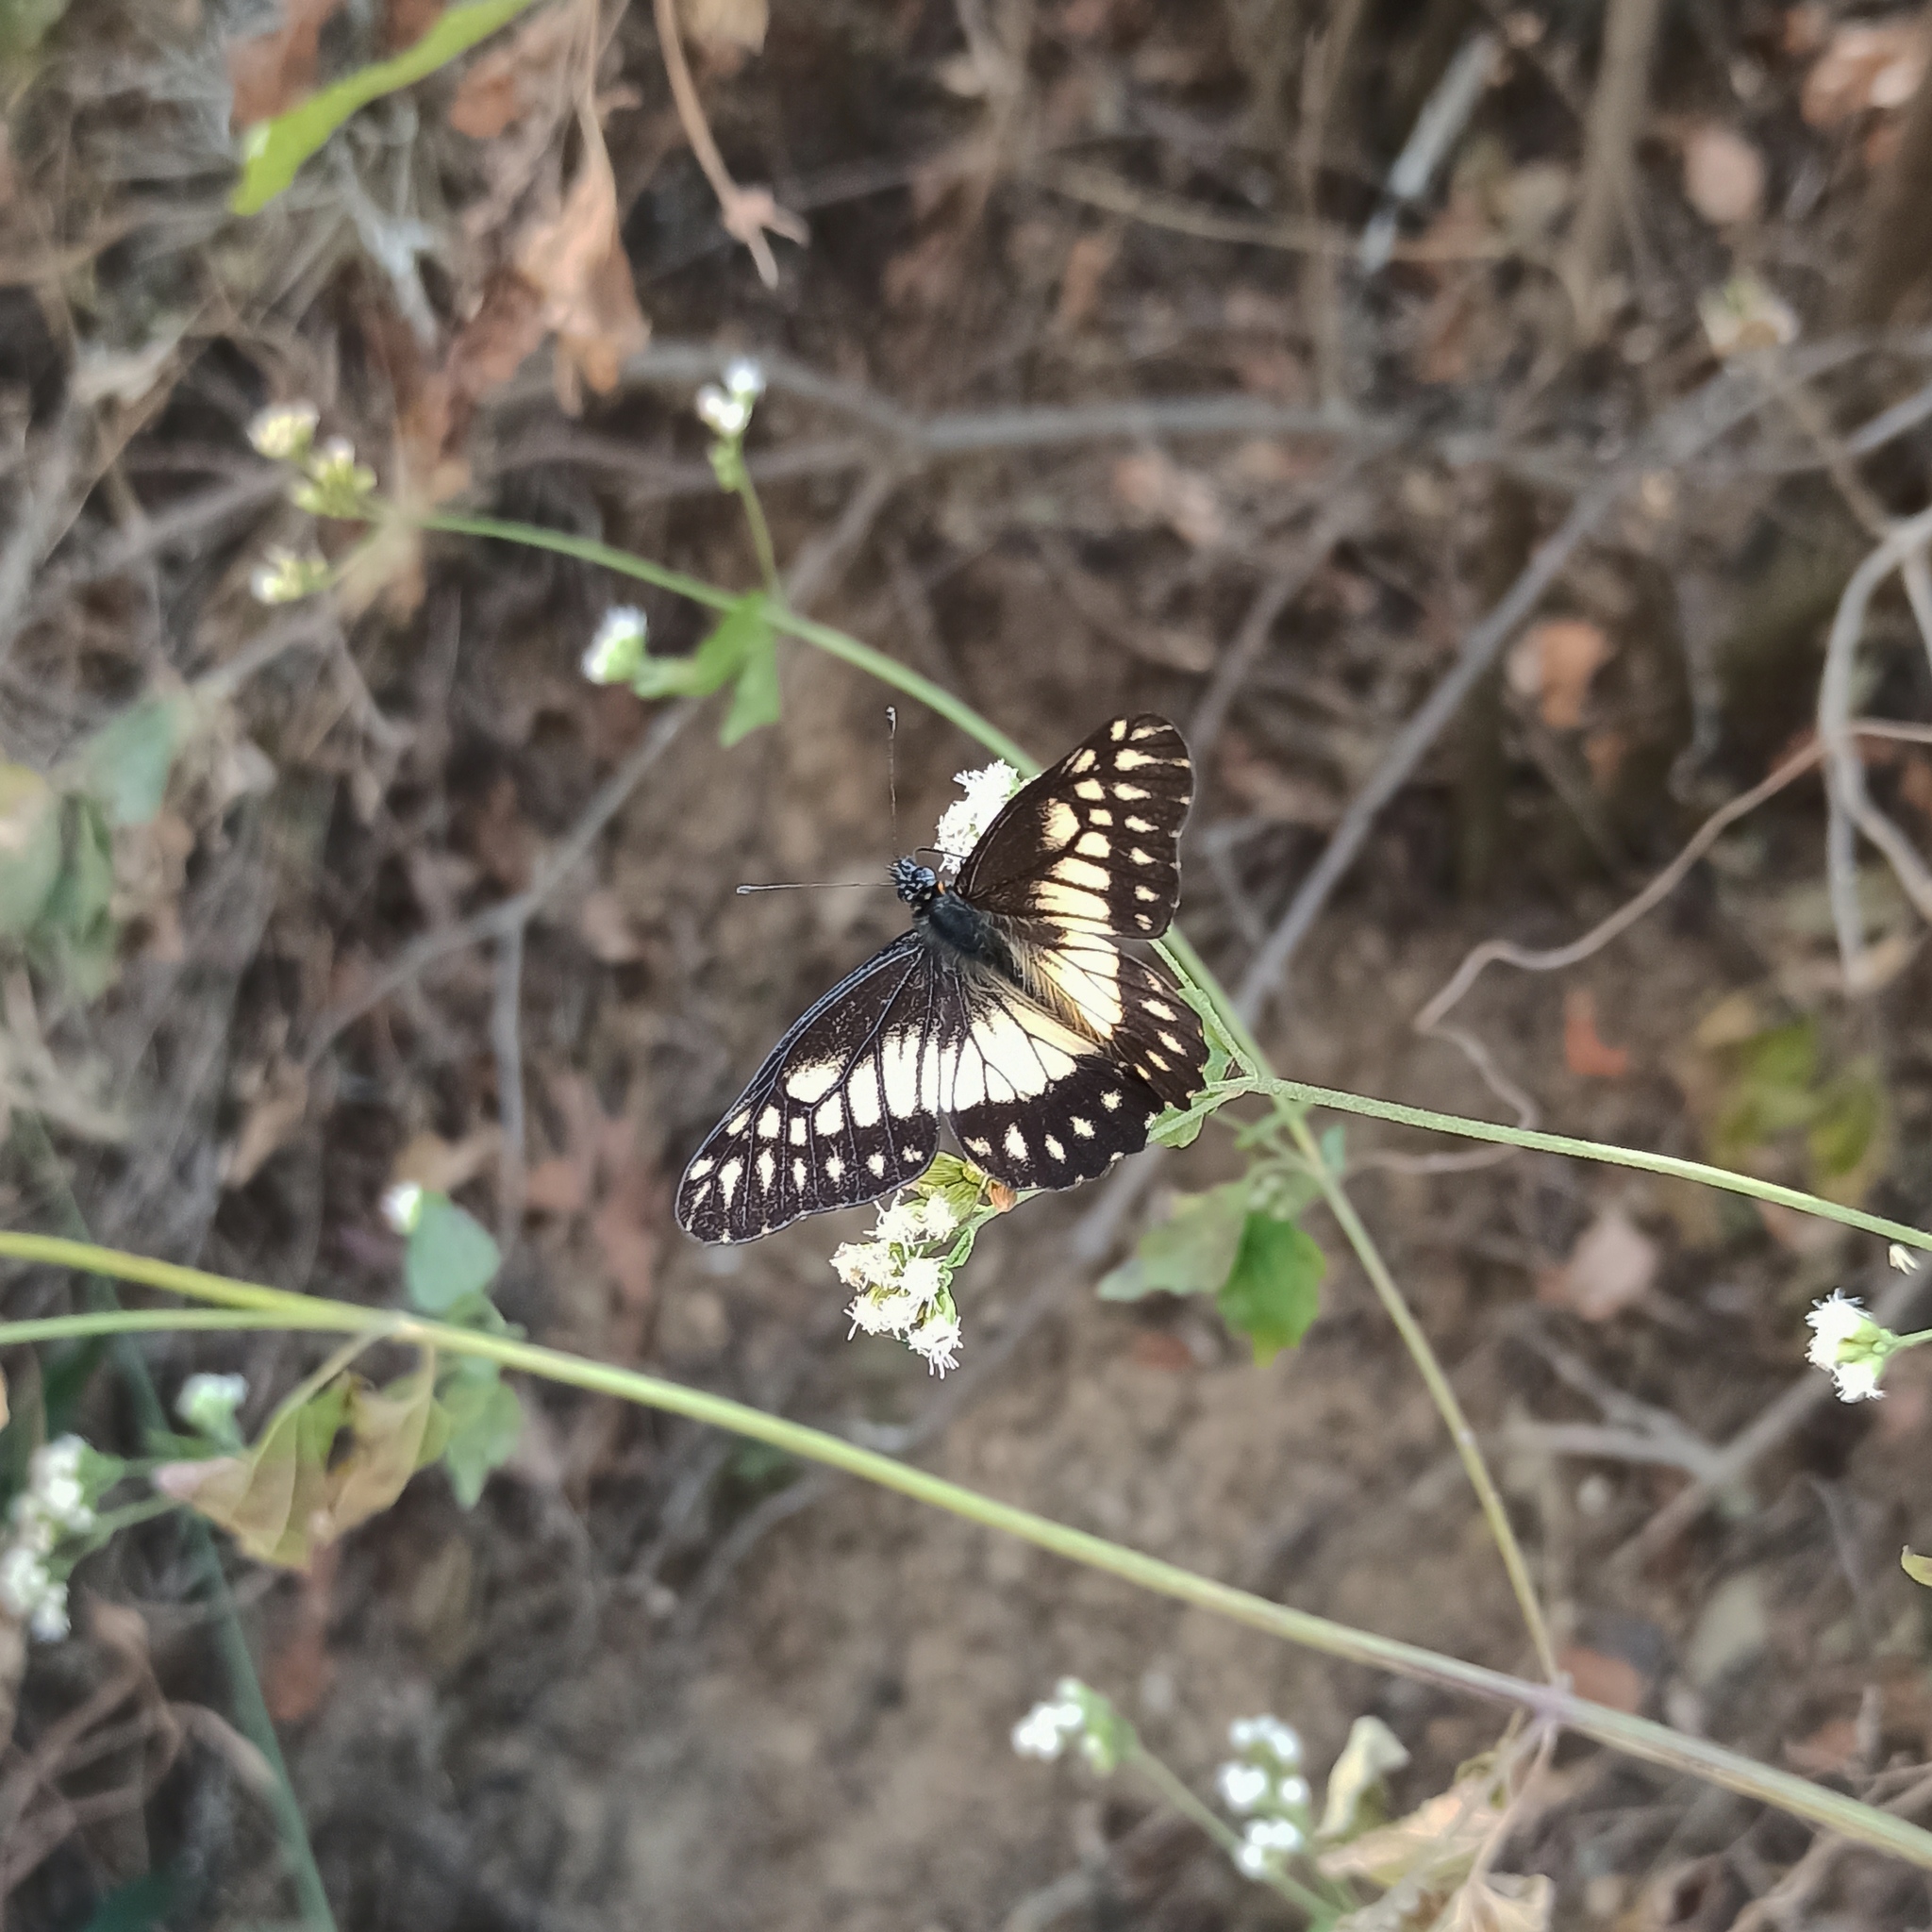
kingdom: Animalia
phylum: Arthropoda
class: Insecta
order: Lepidoptera
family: Pieridae
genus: Archonias
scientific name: Archonias nimbice
